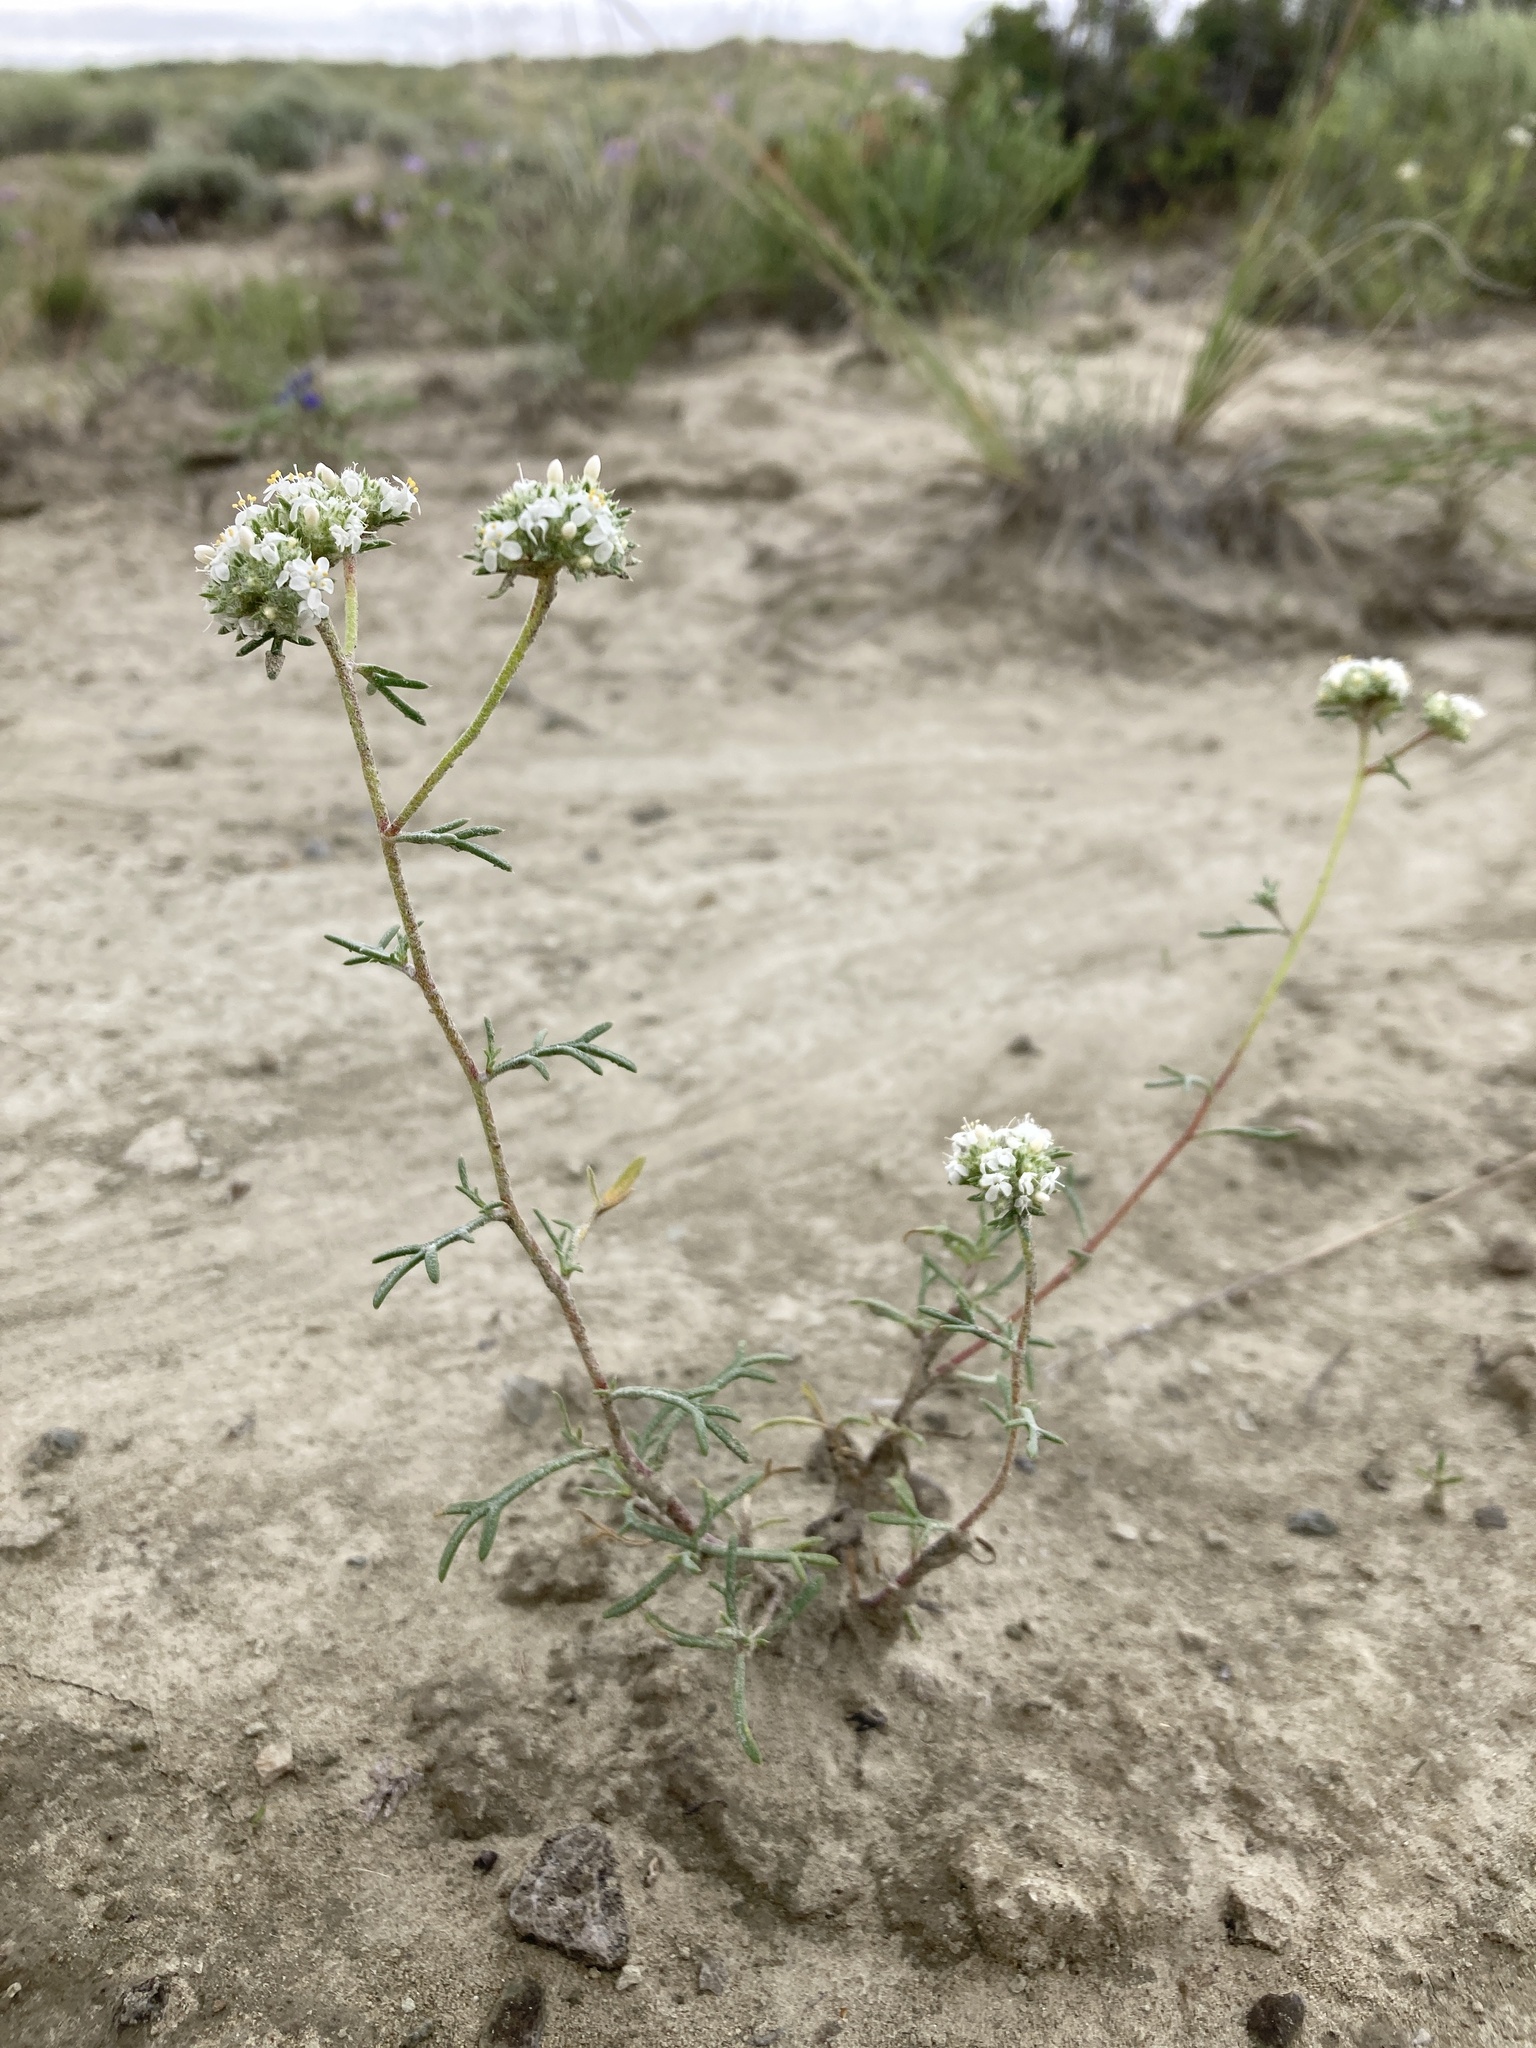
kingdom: Plantae
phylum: Tracheophyta
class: Magnoliopsida
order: Ericales
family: Polemoniaceae
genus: Ipomopsis
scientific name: Ipomopsis congesta
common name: Ball-head gilia
